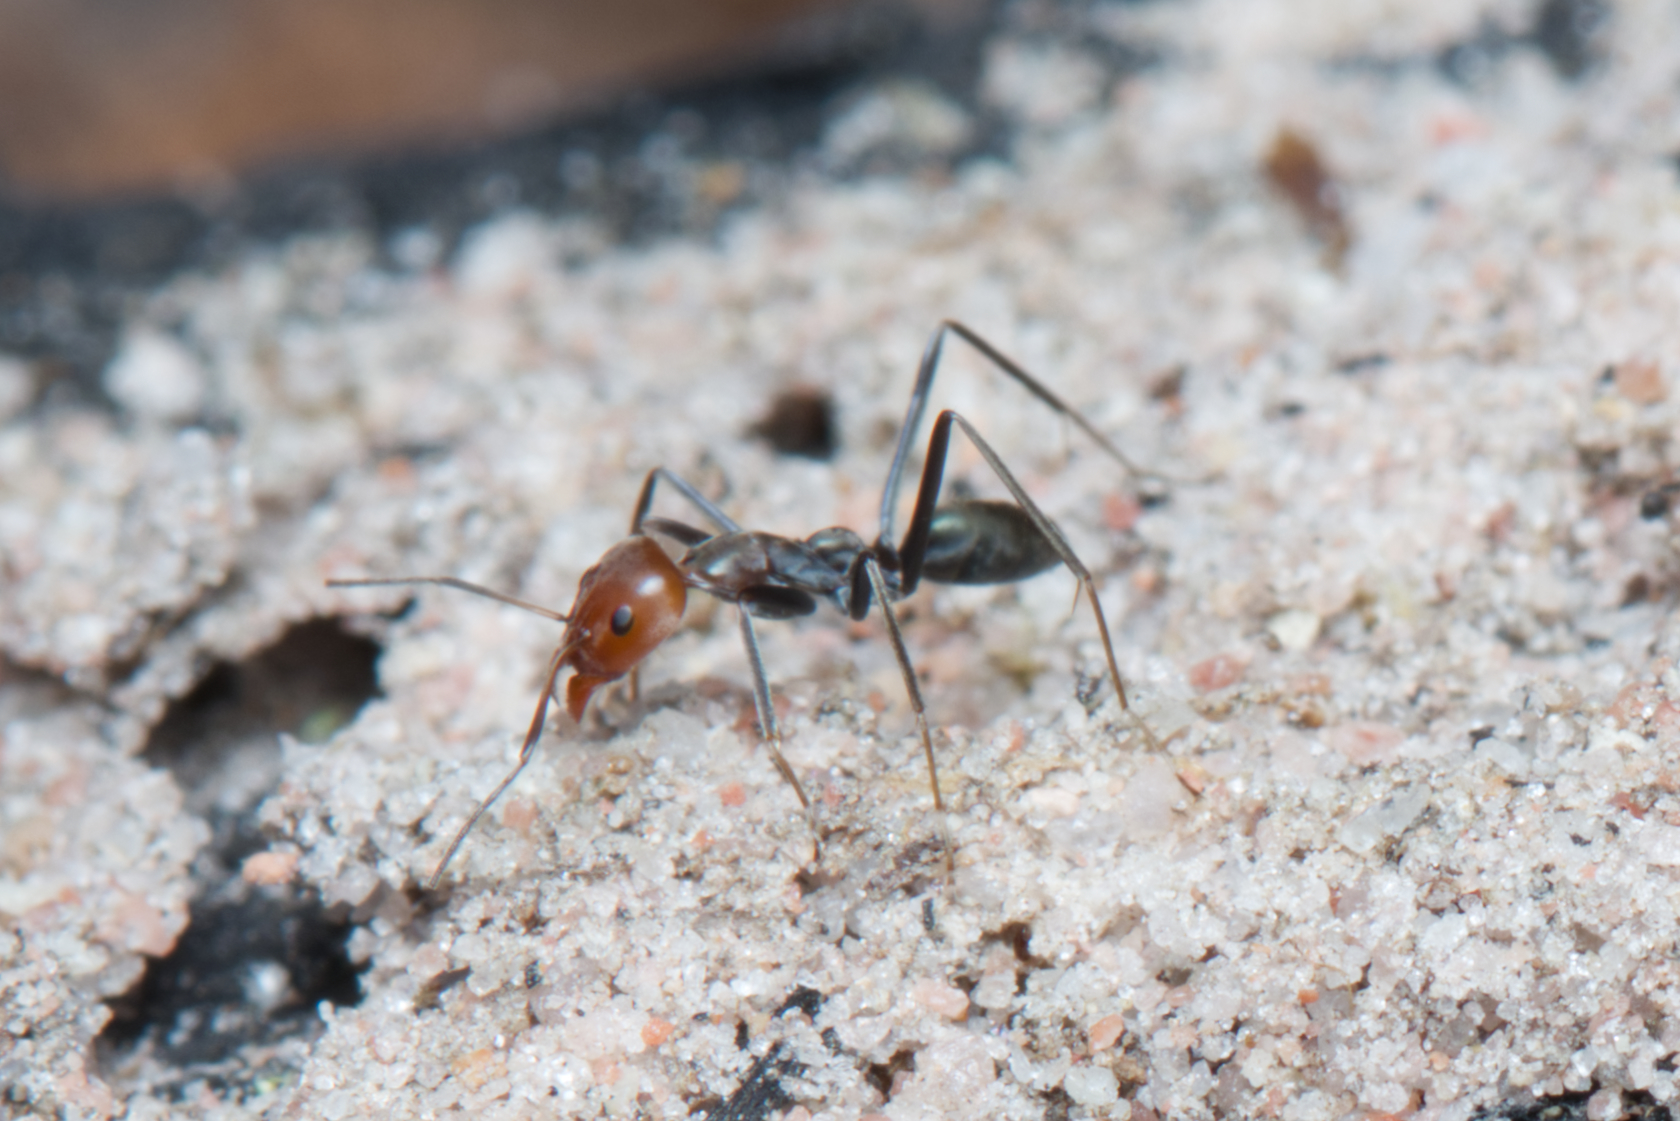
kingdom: Animalia
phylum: Arthropoda
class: Insecta
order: Hymenoptera
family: Formicidae
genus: Iridomyrmex
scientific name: Iridomyrmex
